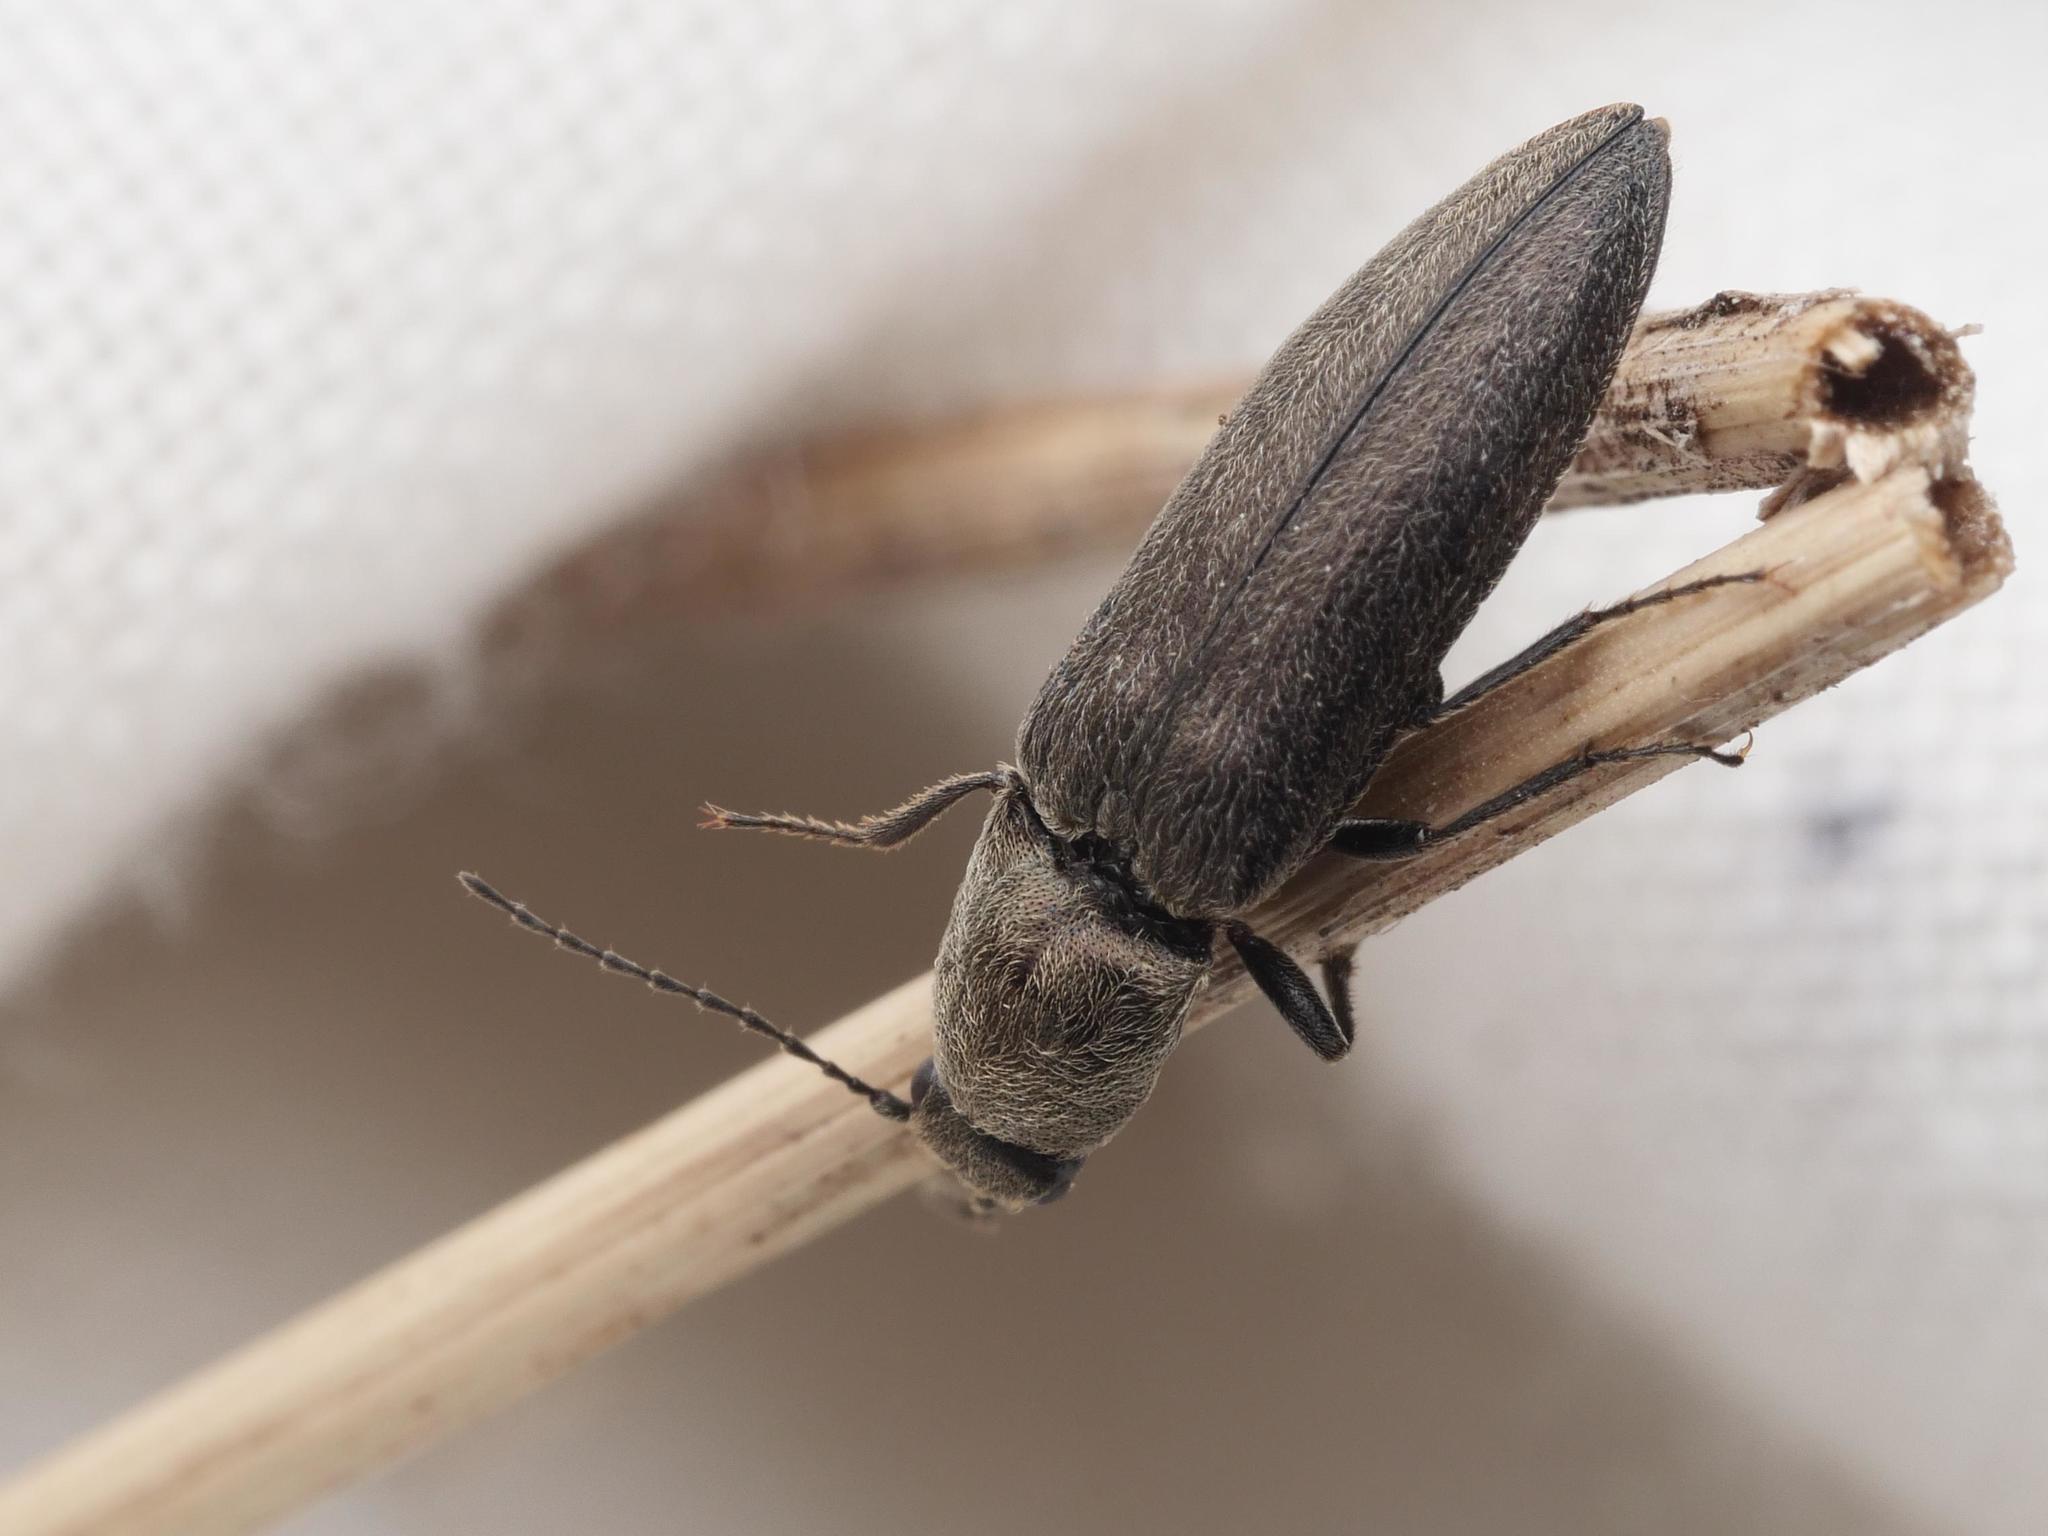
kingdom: Animalia
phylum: Arthropoda
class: Insecta
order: Coleoptera
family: Elateridae
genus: Cidnopus
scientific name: Cidnopus aeruginosus
